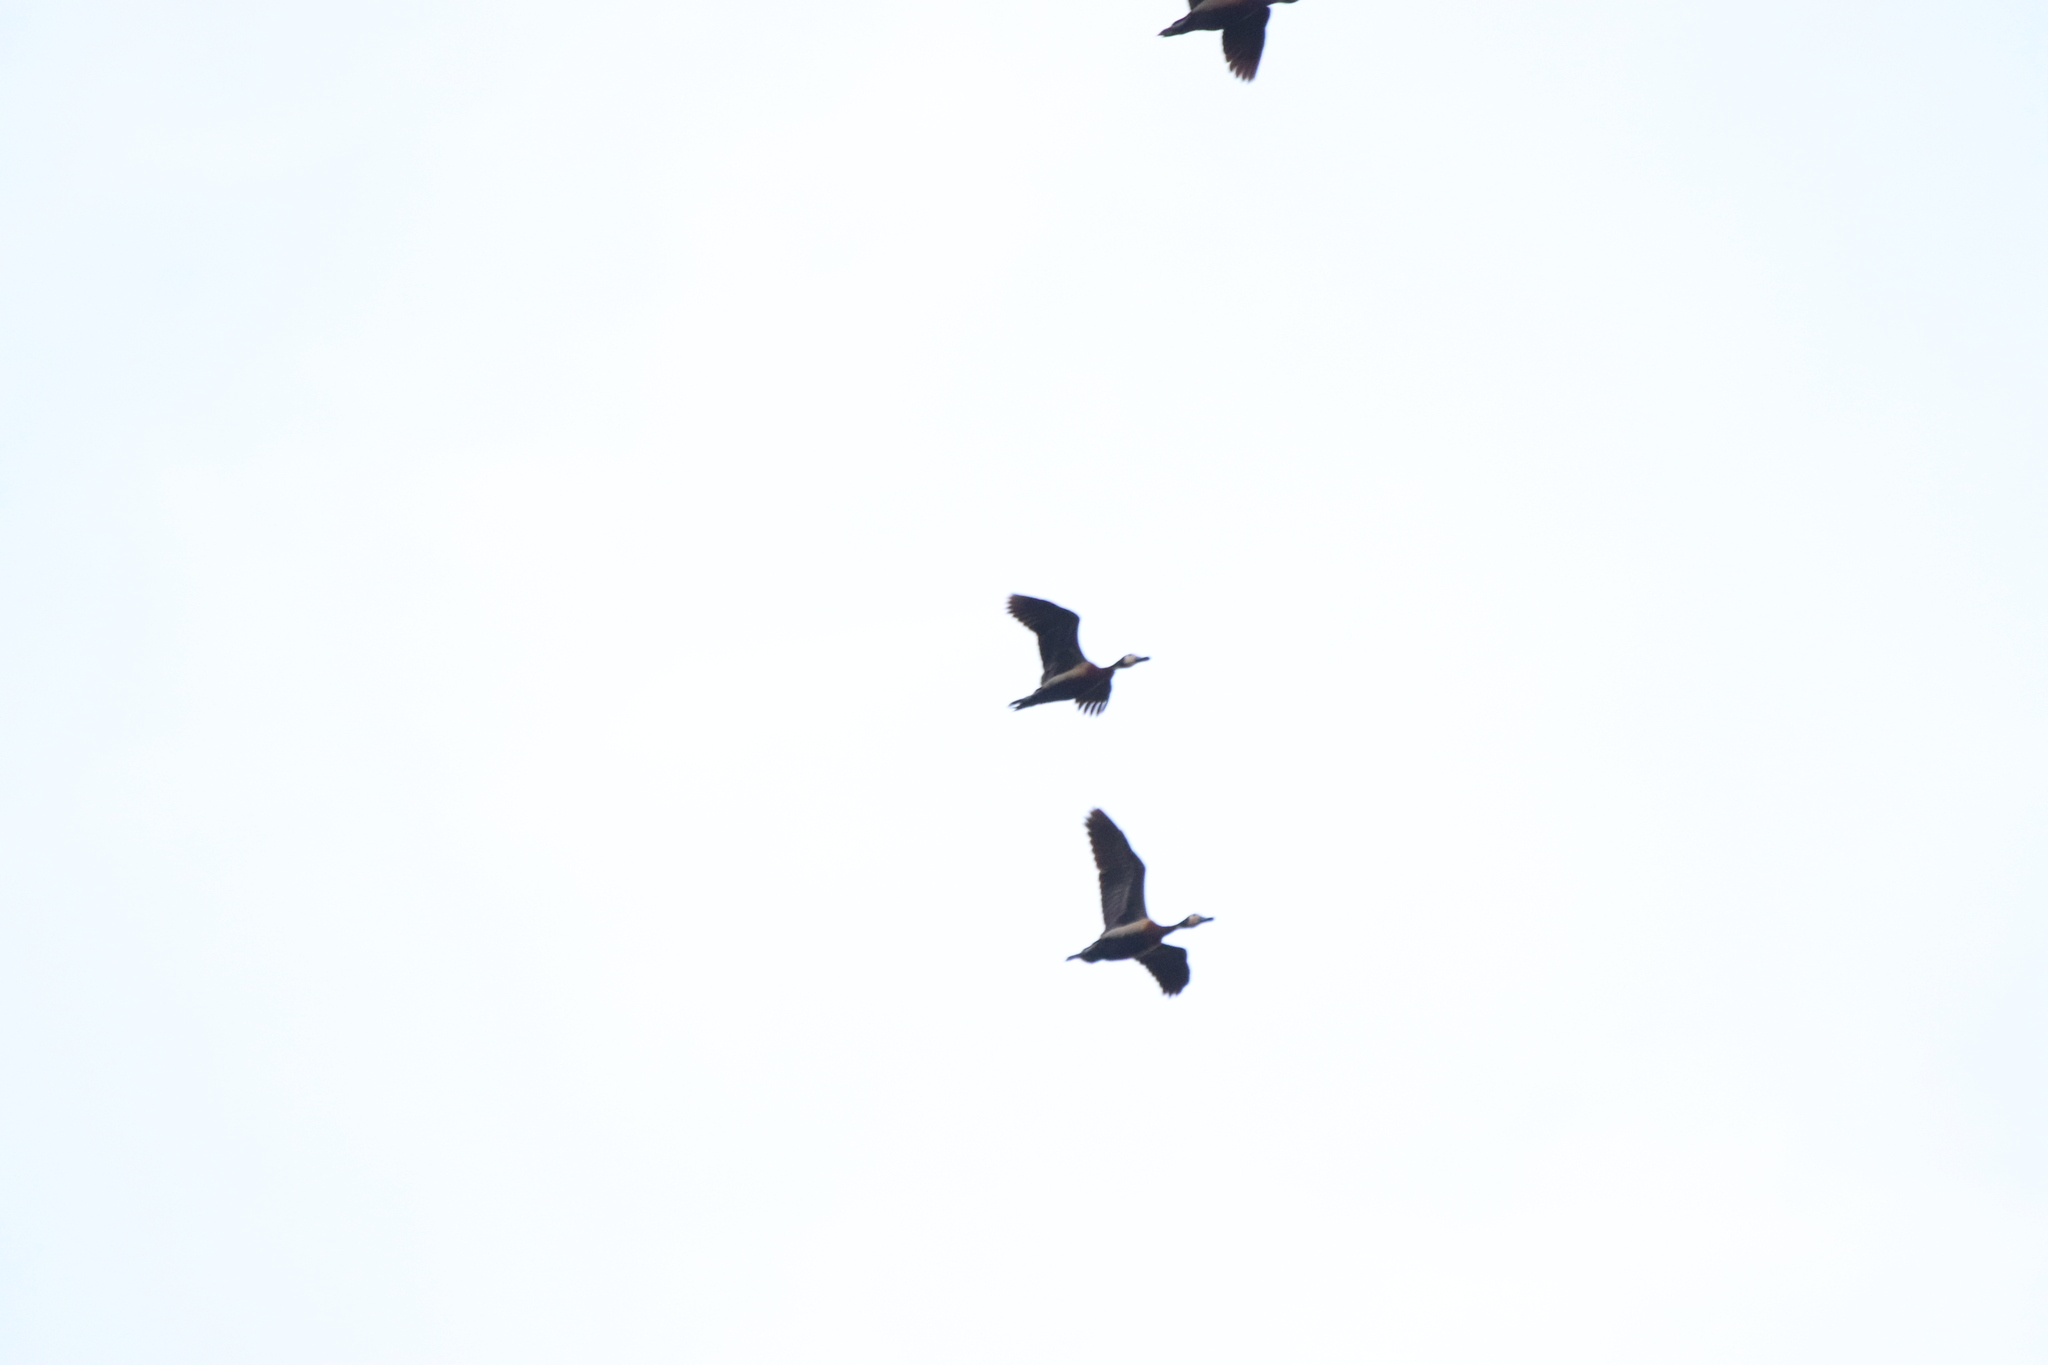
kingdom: Animalia
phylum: Chordata
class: Aves
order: Anseriformes
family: Anatidae
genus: Dendrocygna
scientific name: Dendrocygna viduata
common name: White-faced whistling duck
